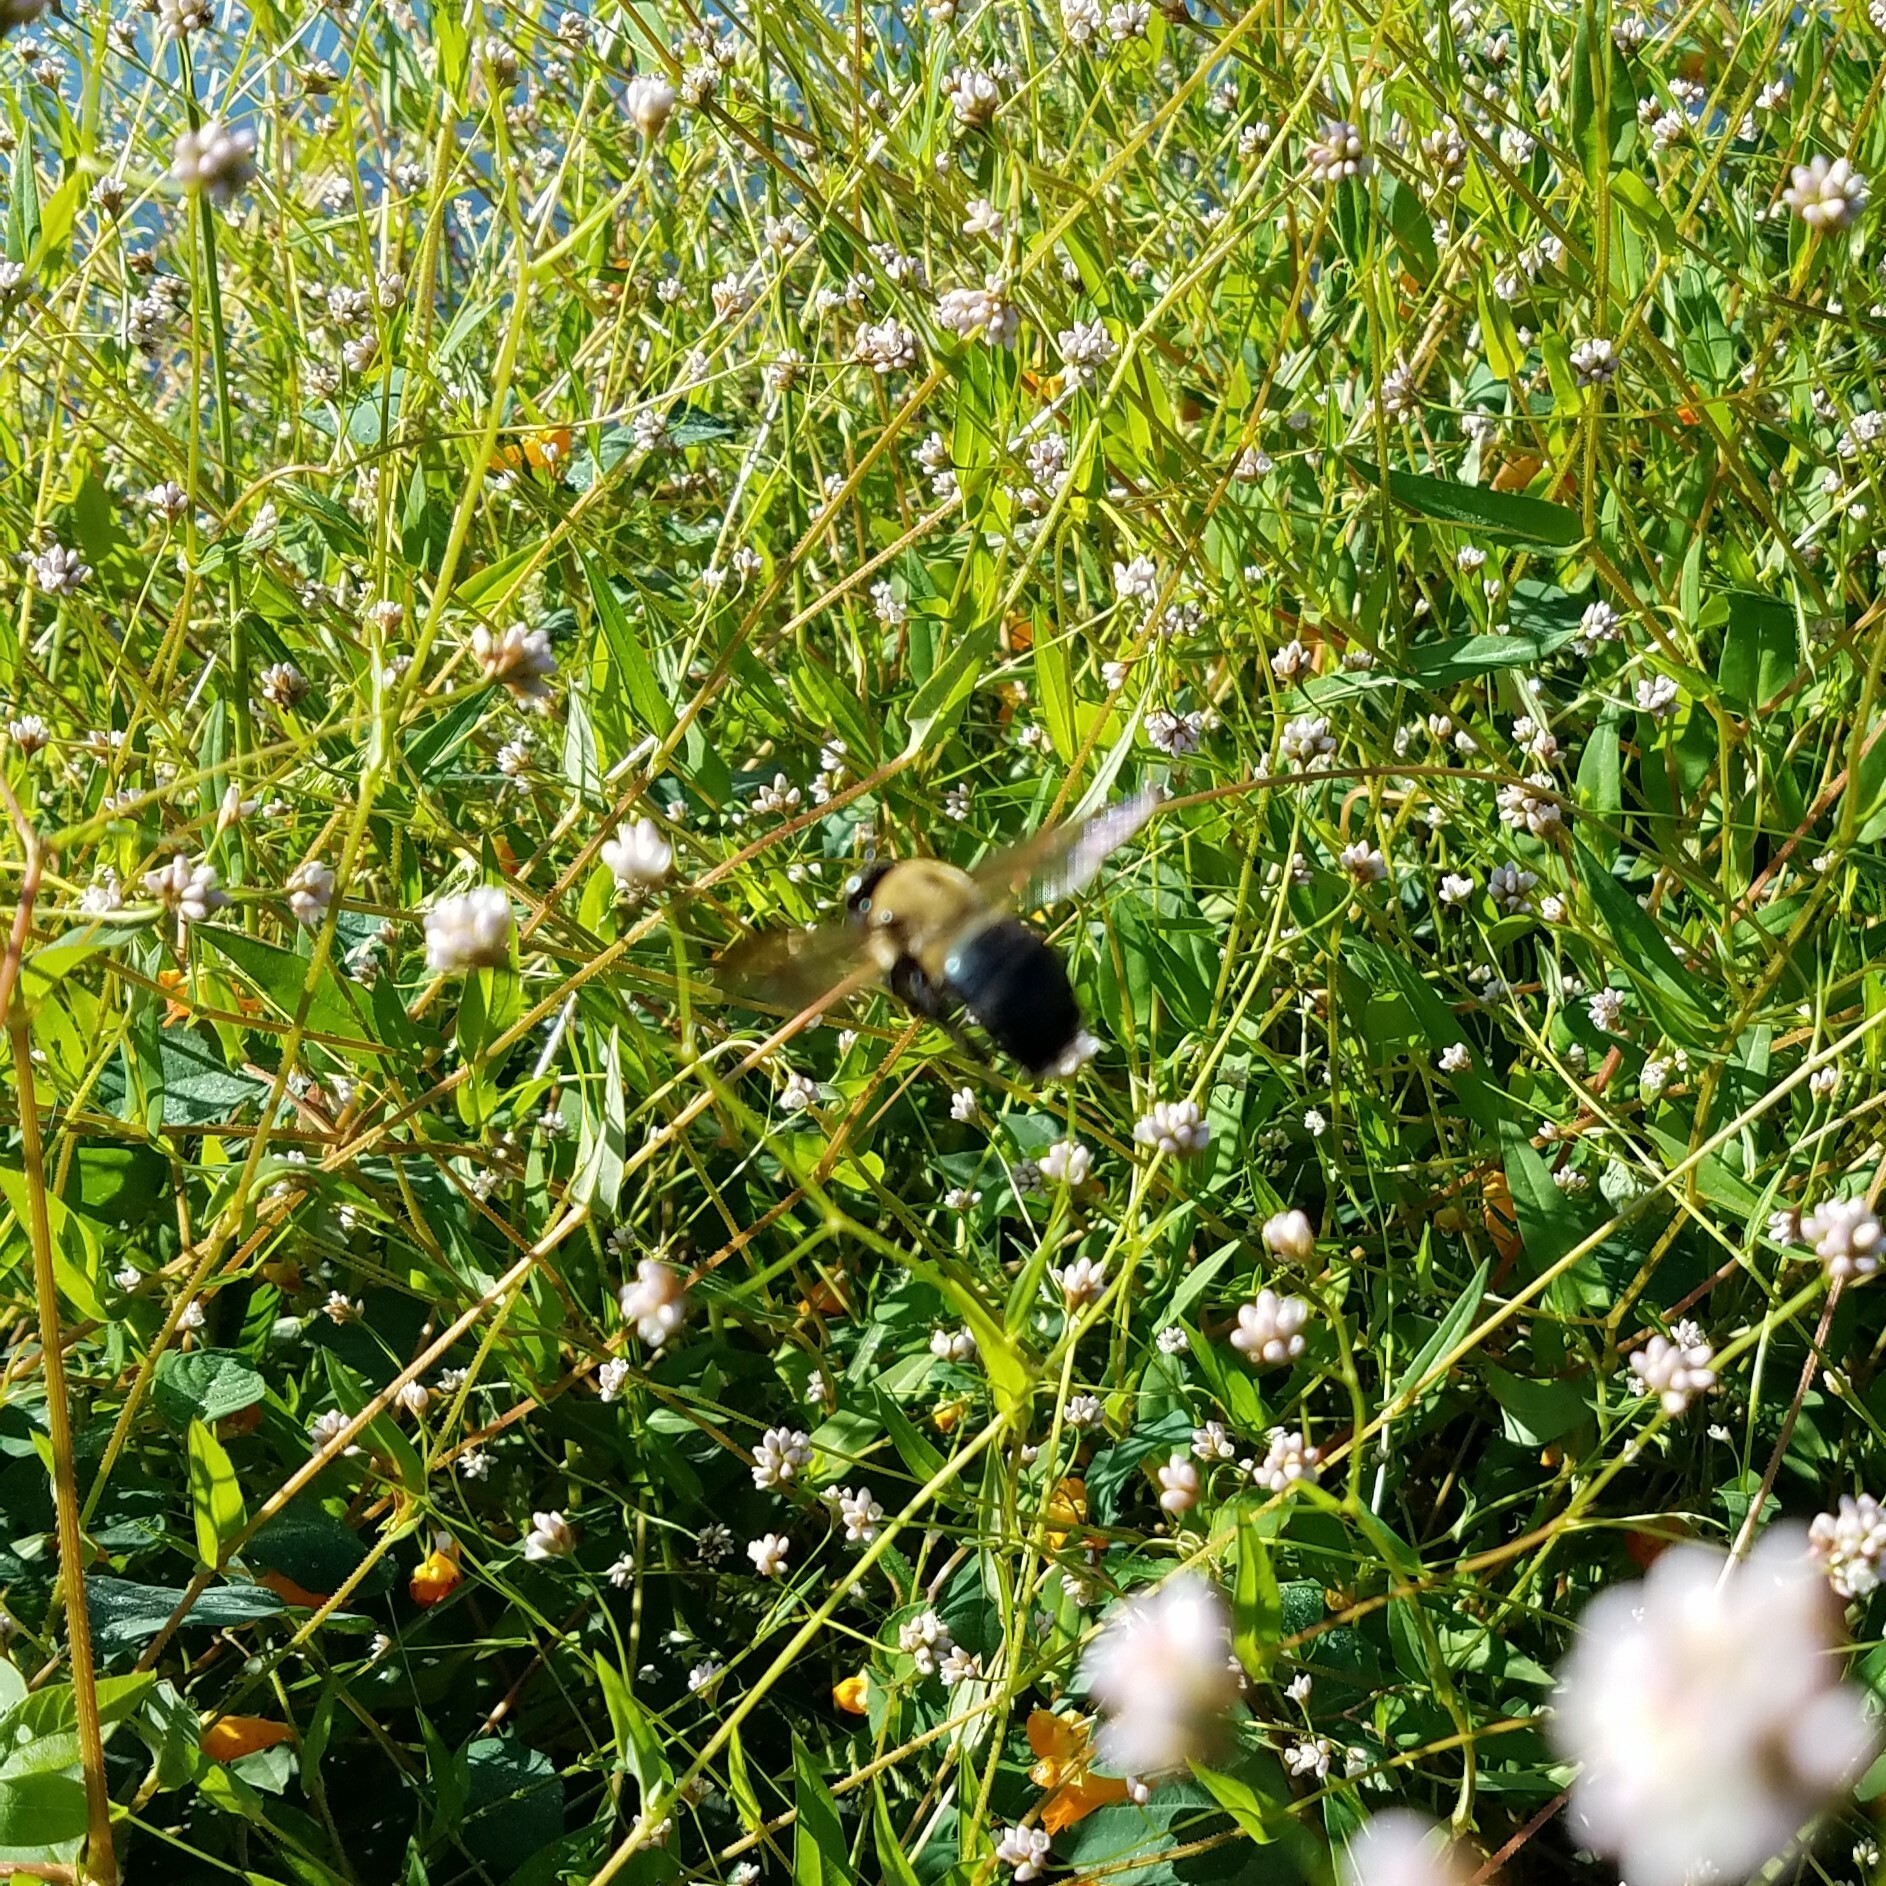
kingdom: Animalia
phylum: Arthropoda
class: Insecta
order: Hymenoptera
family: Apidae
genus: Xylocopa
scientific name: Xylocopa virginica
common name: Carpenter bee
